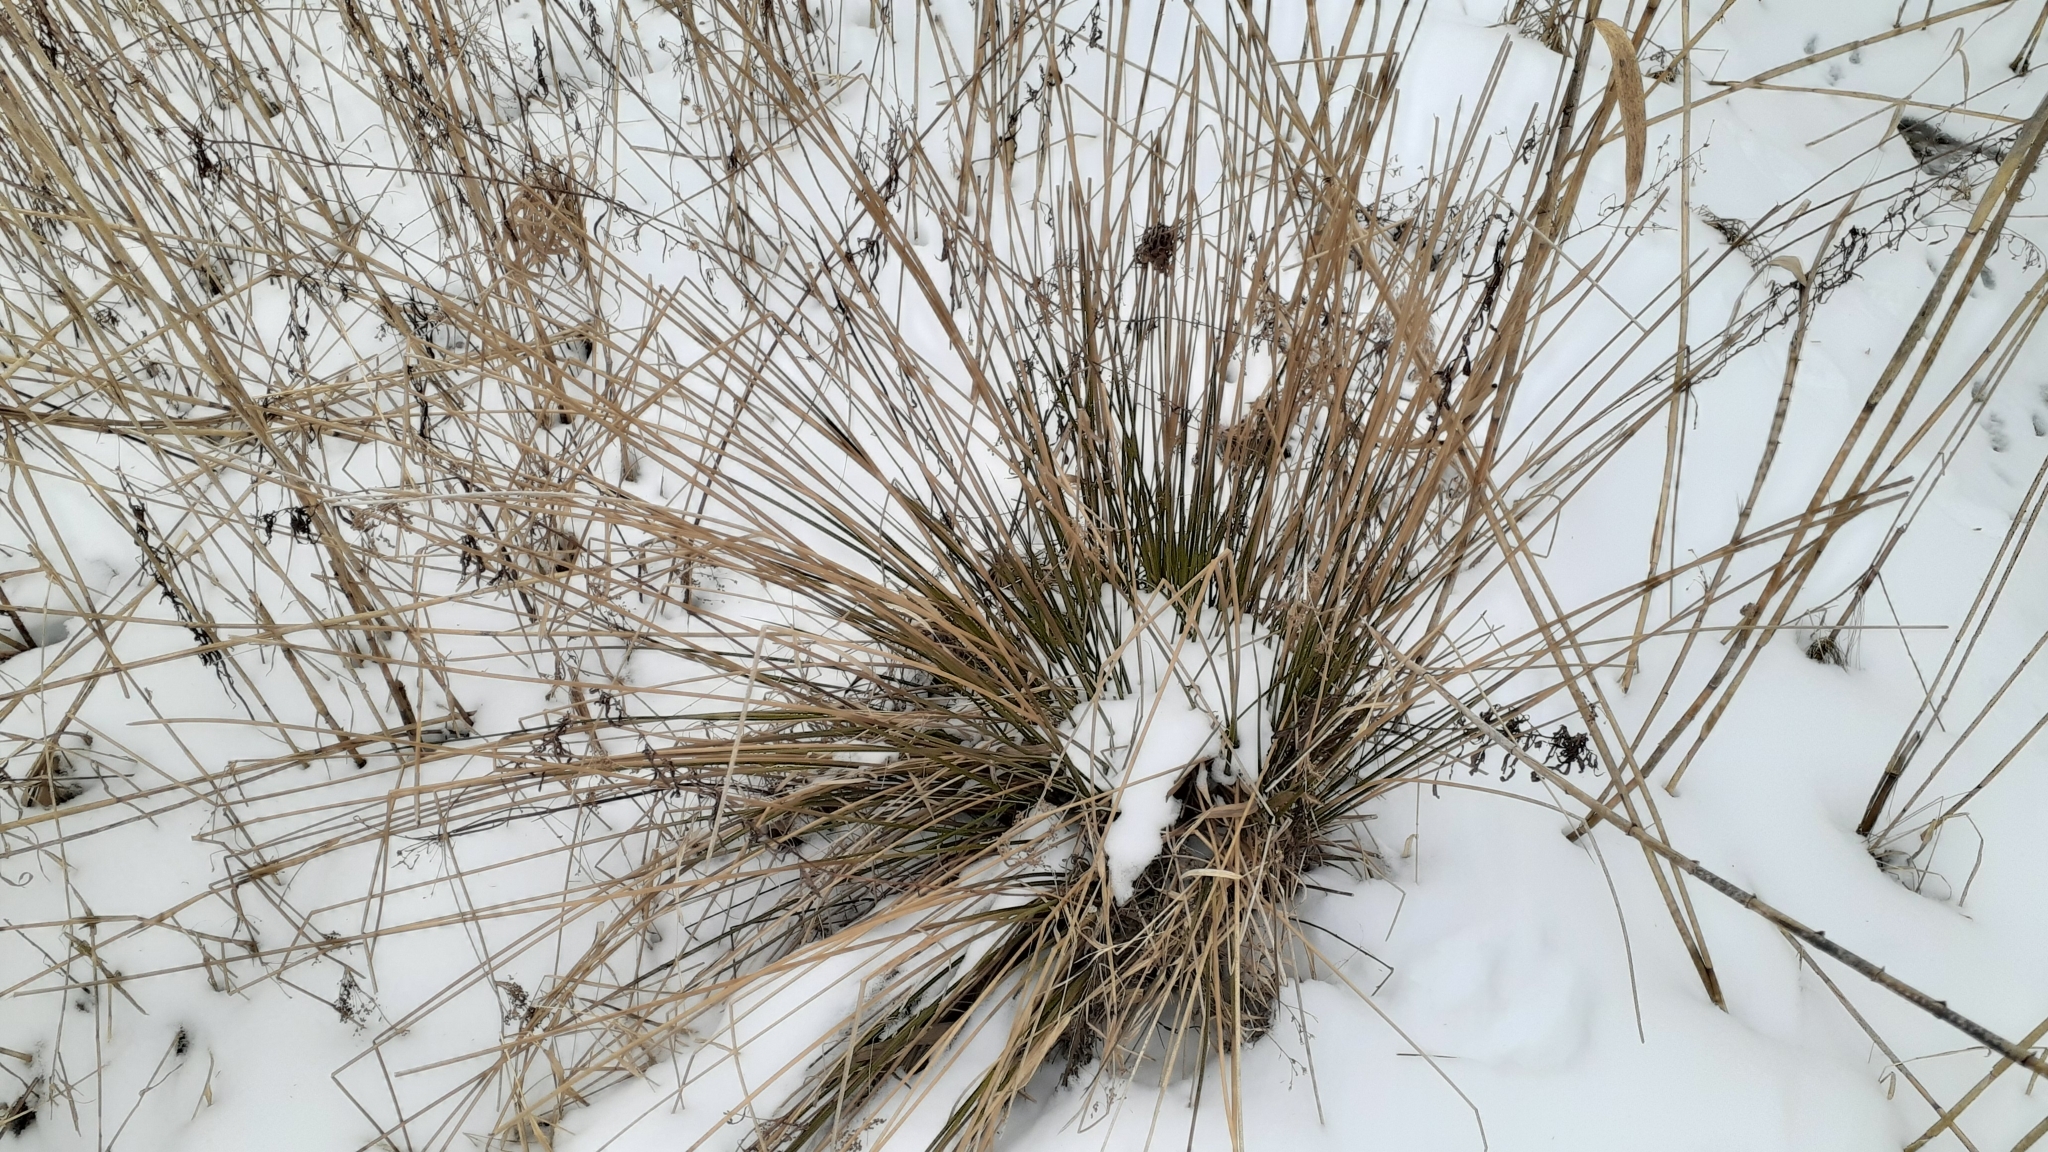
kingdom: Plantae
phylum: Tracheophyta
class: Liliopsida
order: Poales
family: Juncaceae
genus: Juncus
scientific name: Juncus effusus
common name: Soft rush
